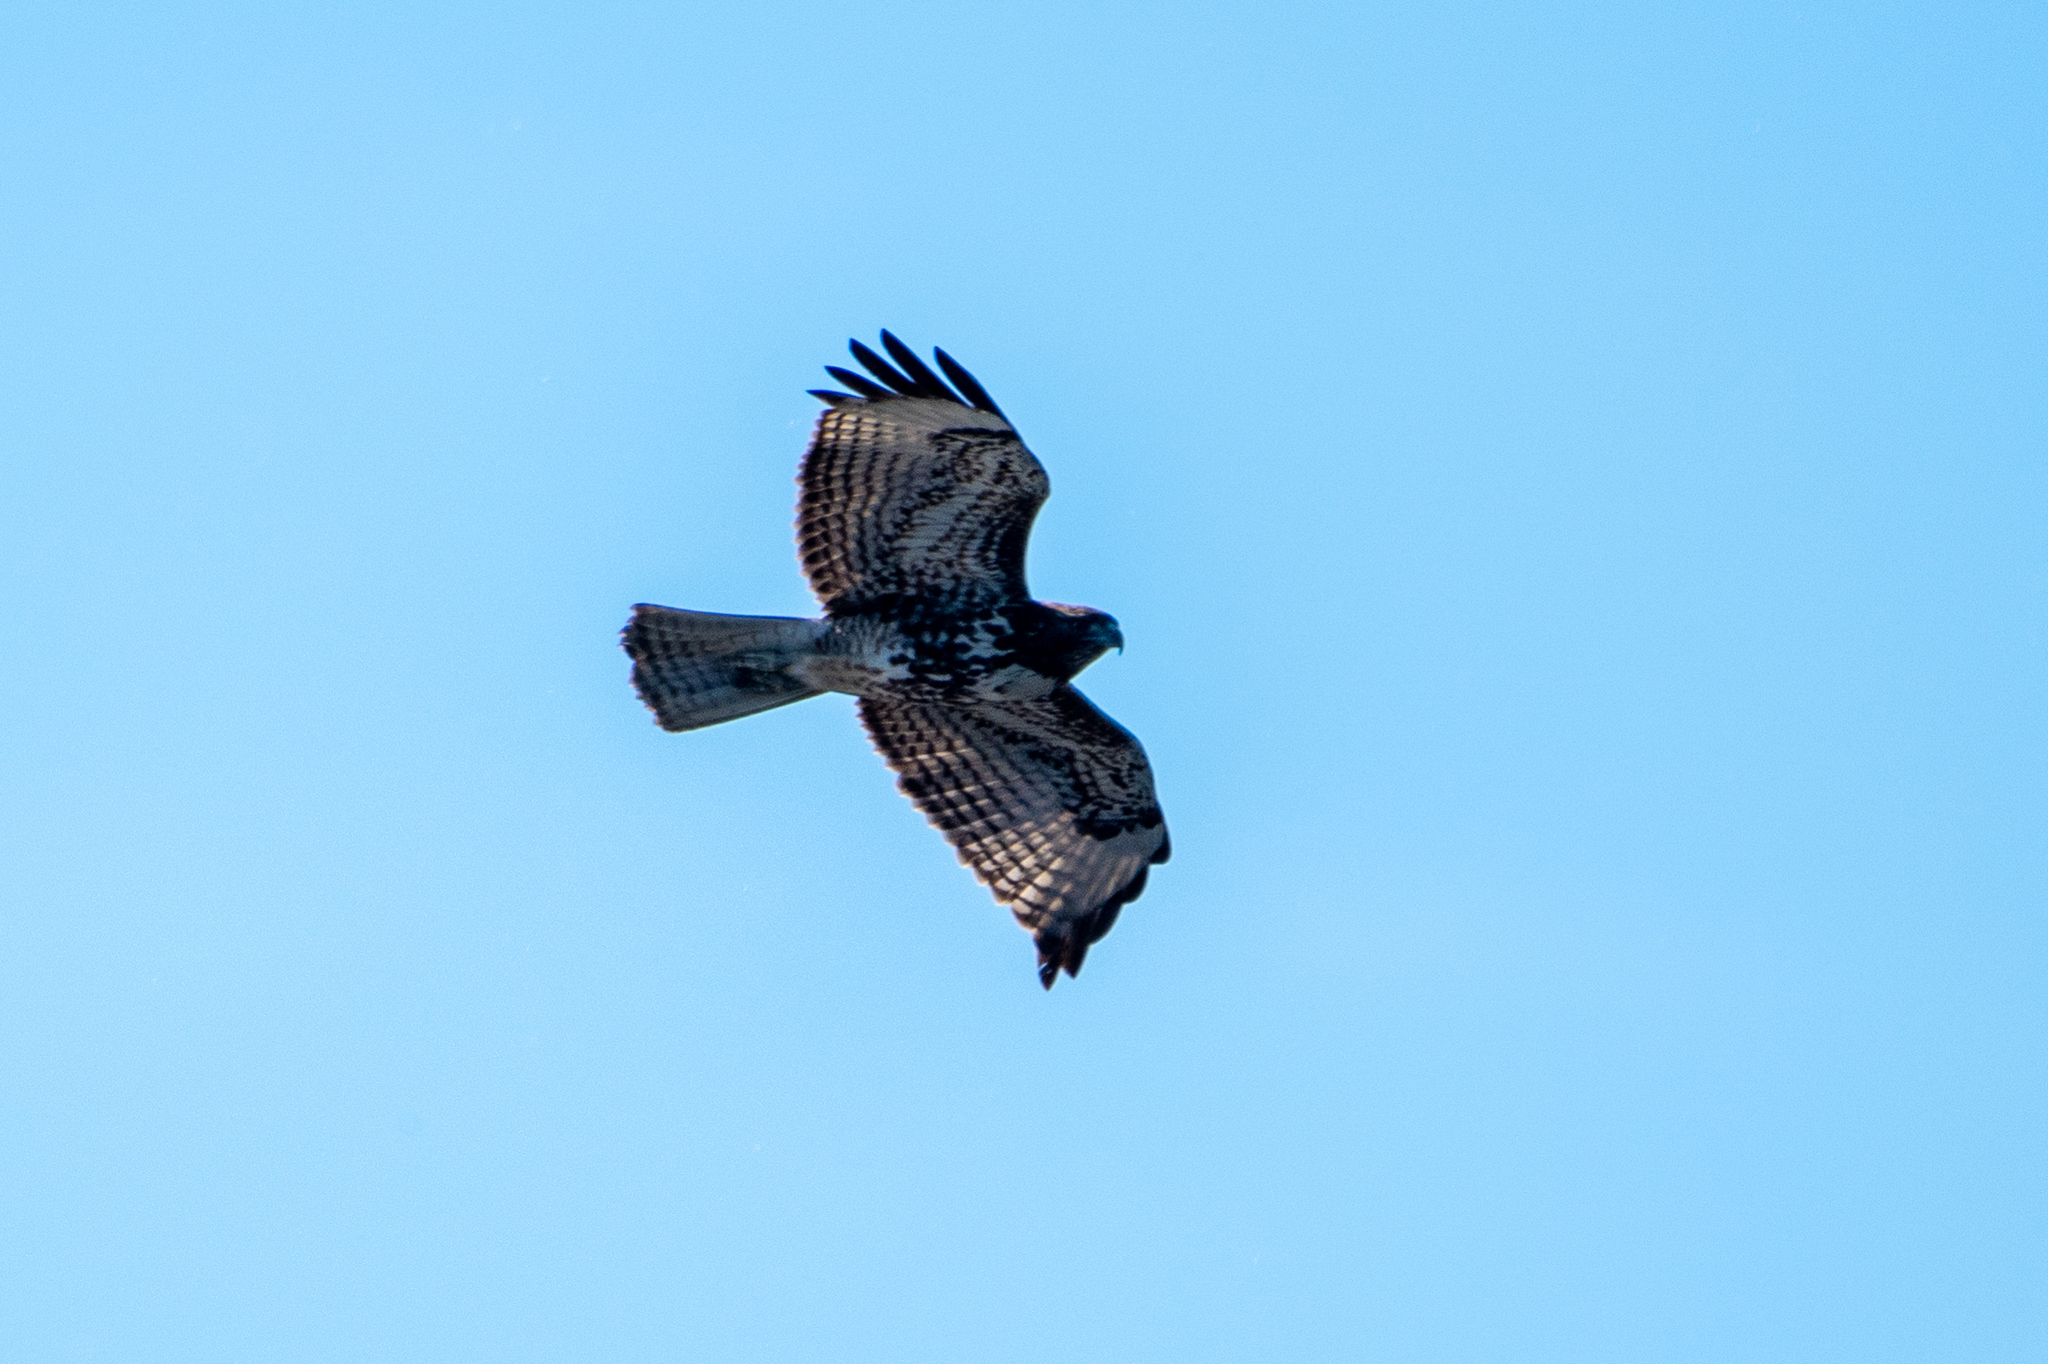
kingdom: Animalia
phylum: Chordata
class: Aves
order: Accipitriformes
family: Accipitridae
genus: Buteo
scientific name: Buteo jamaicensis
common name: Red-tailed hawk
